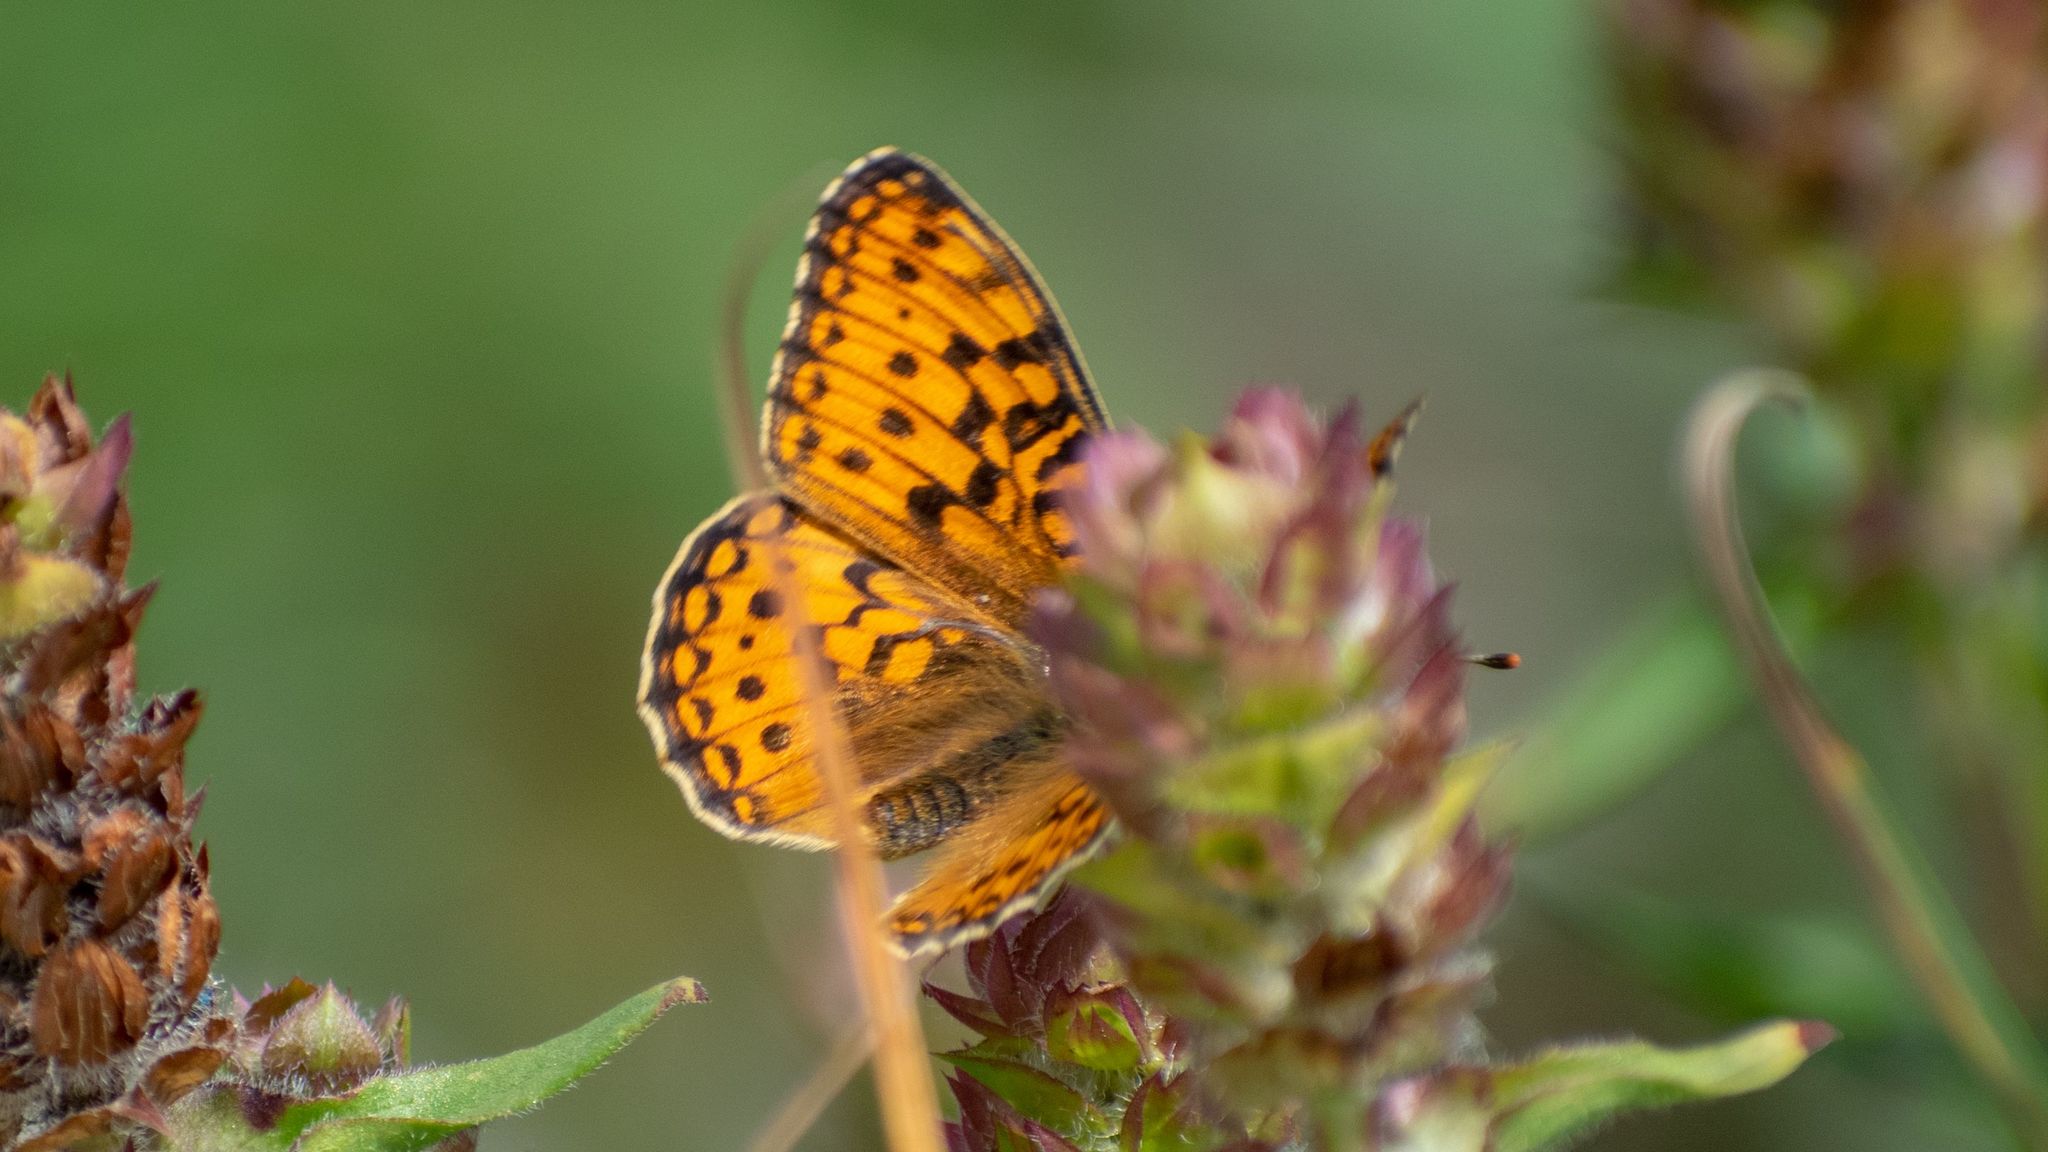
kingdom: Animalia
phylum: Arthropoda
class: Insecta
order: Lepidoptera
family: Nymphalidae
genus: Fabriciana
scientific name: Fabriciana niobe
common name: Niobe fritillary
